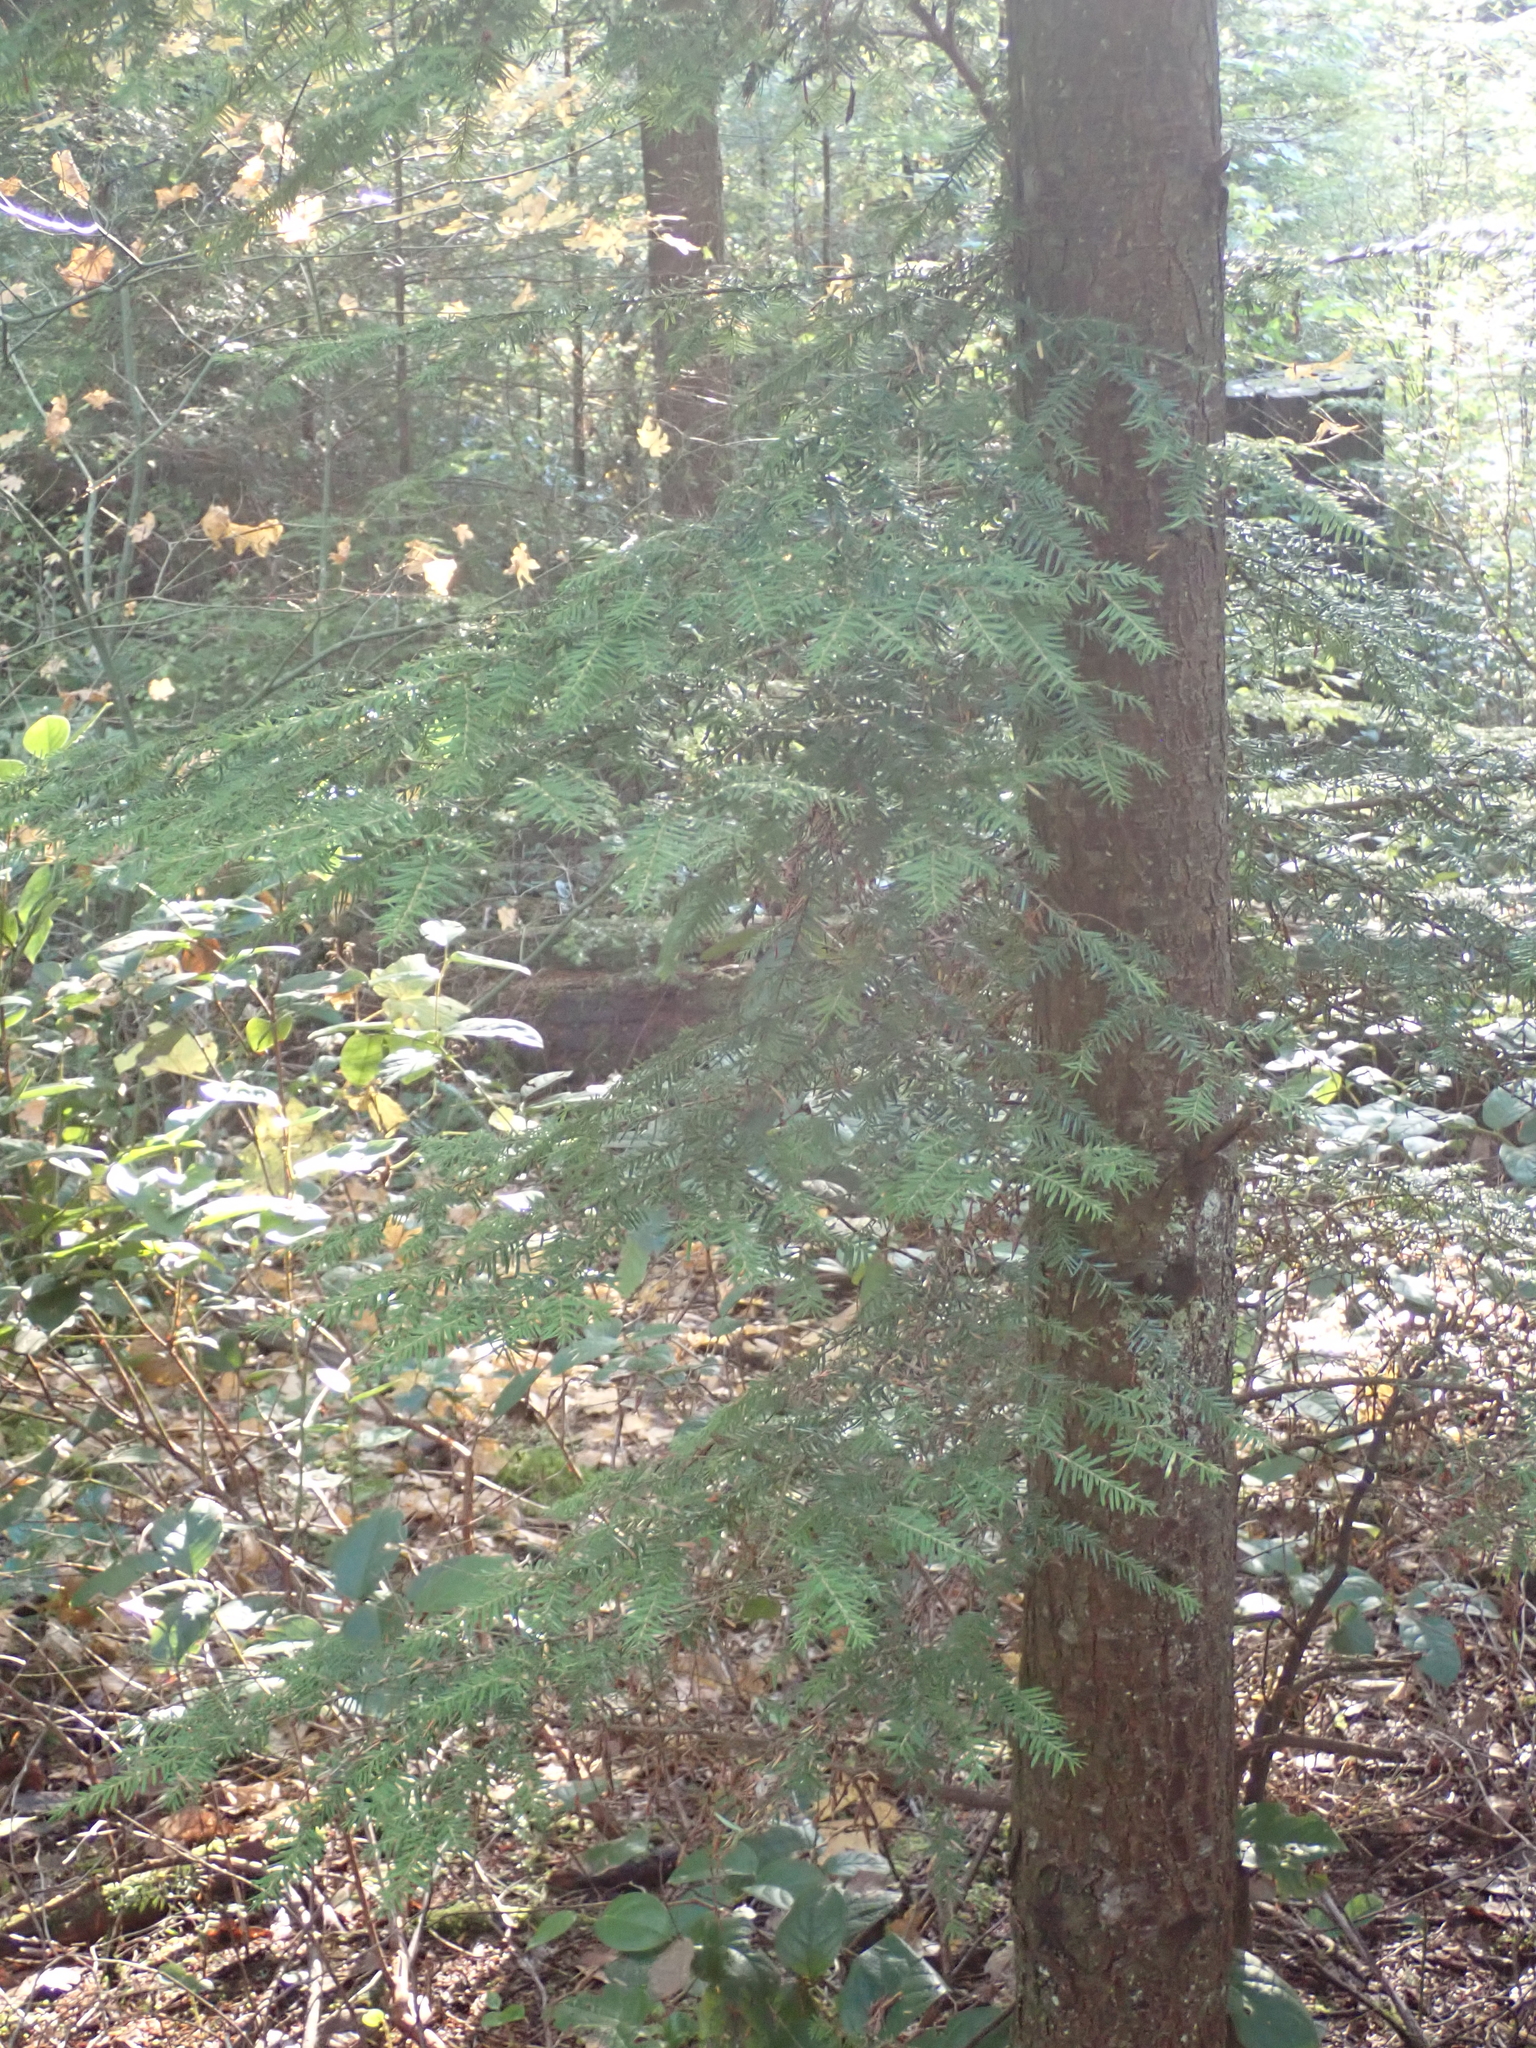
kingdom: Plantae
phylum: Tracheophyta
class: Pinopsida
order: Pinales
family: Pinaceae
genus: Tsuga
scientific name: Tsuga heterophylla
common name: Western hemlock
